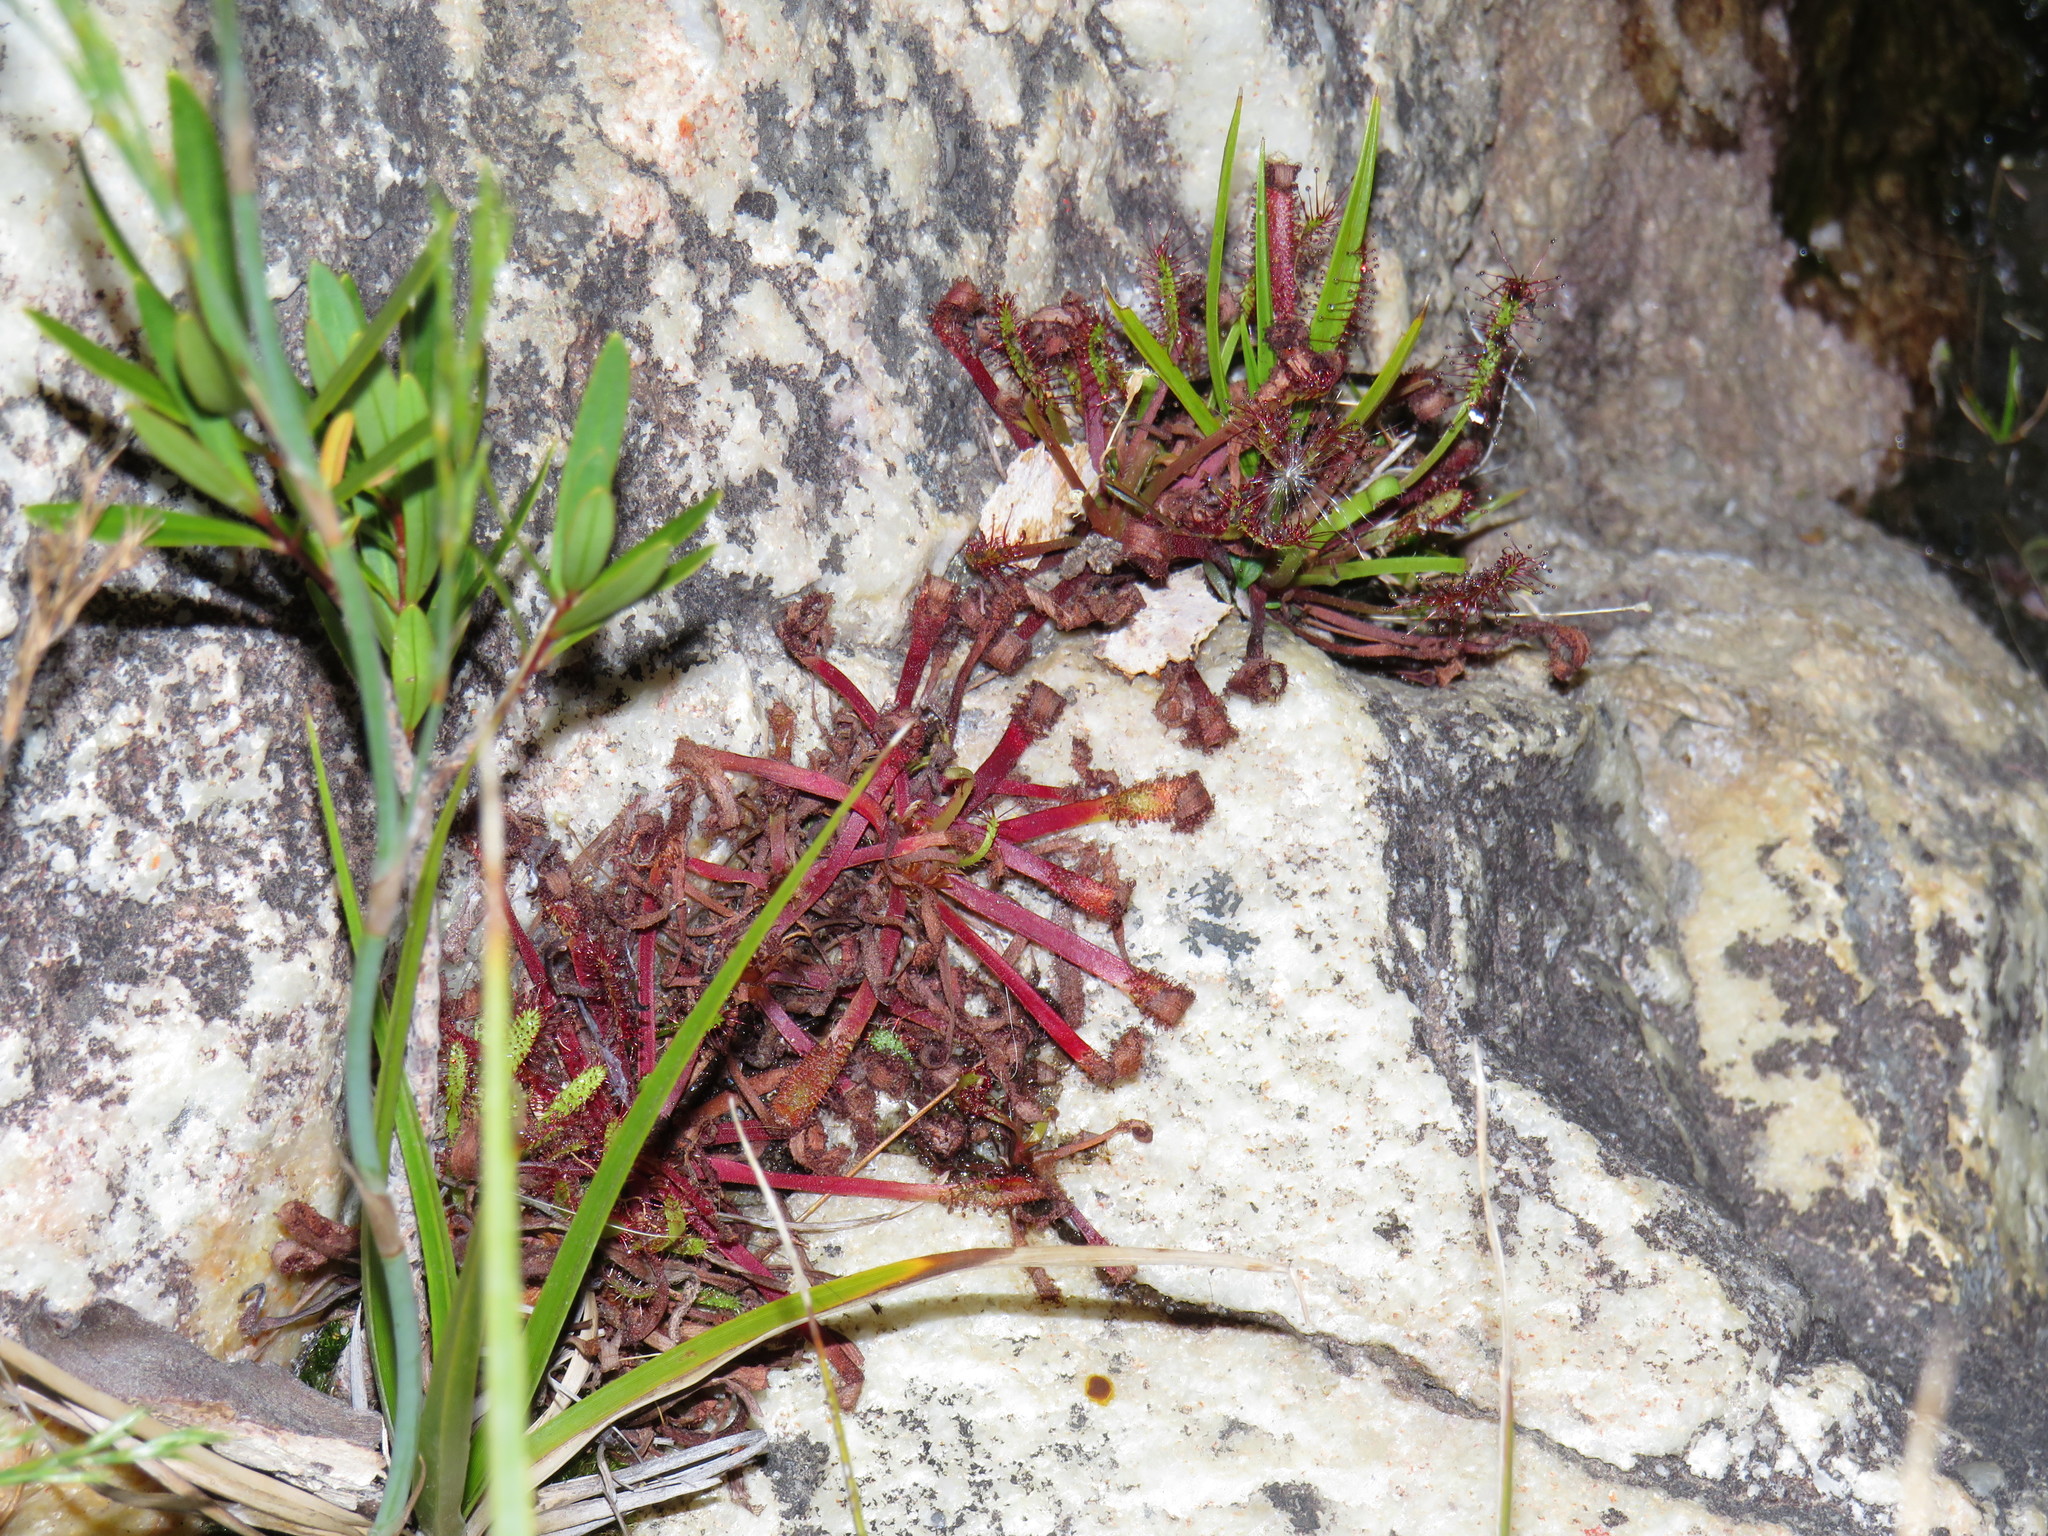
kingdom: Plantae
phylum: Tracheophyta
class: Magnoliopsida
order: Caryophyllales
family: Droseraceae
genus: Drosera
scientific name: Drosera capensis
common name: Cape sundew
